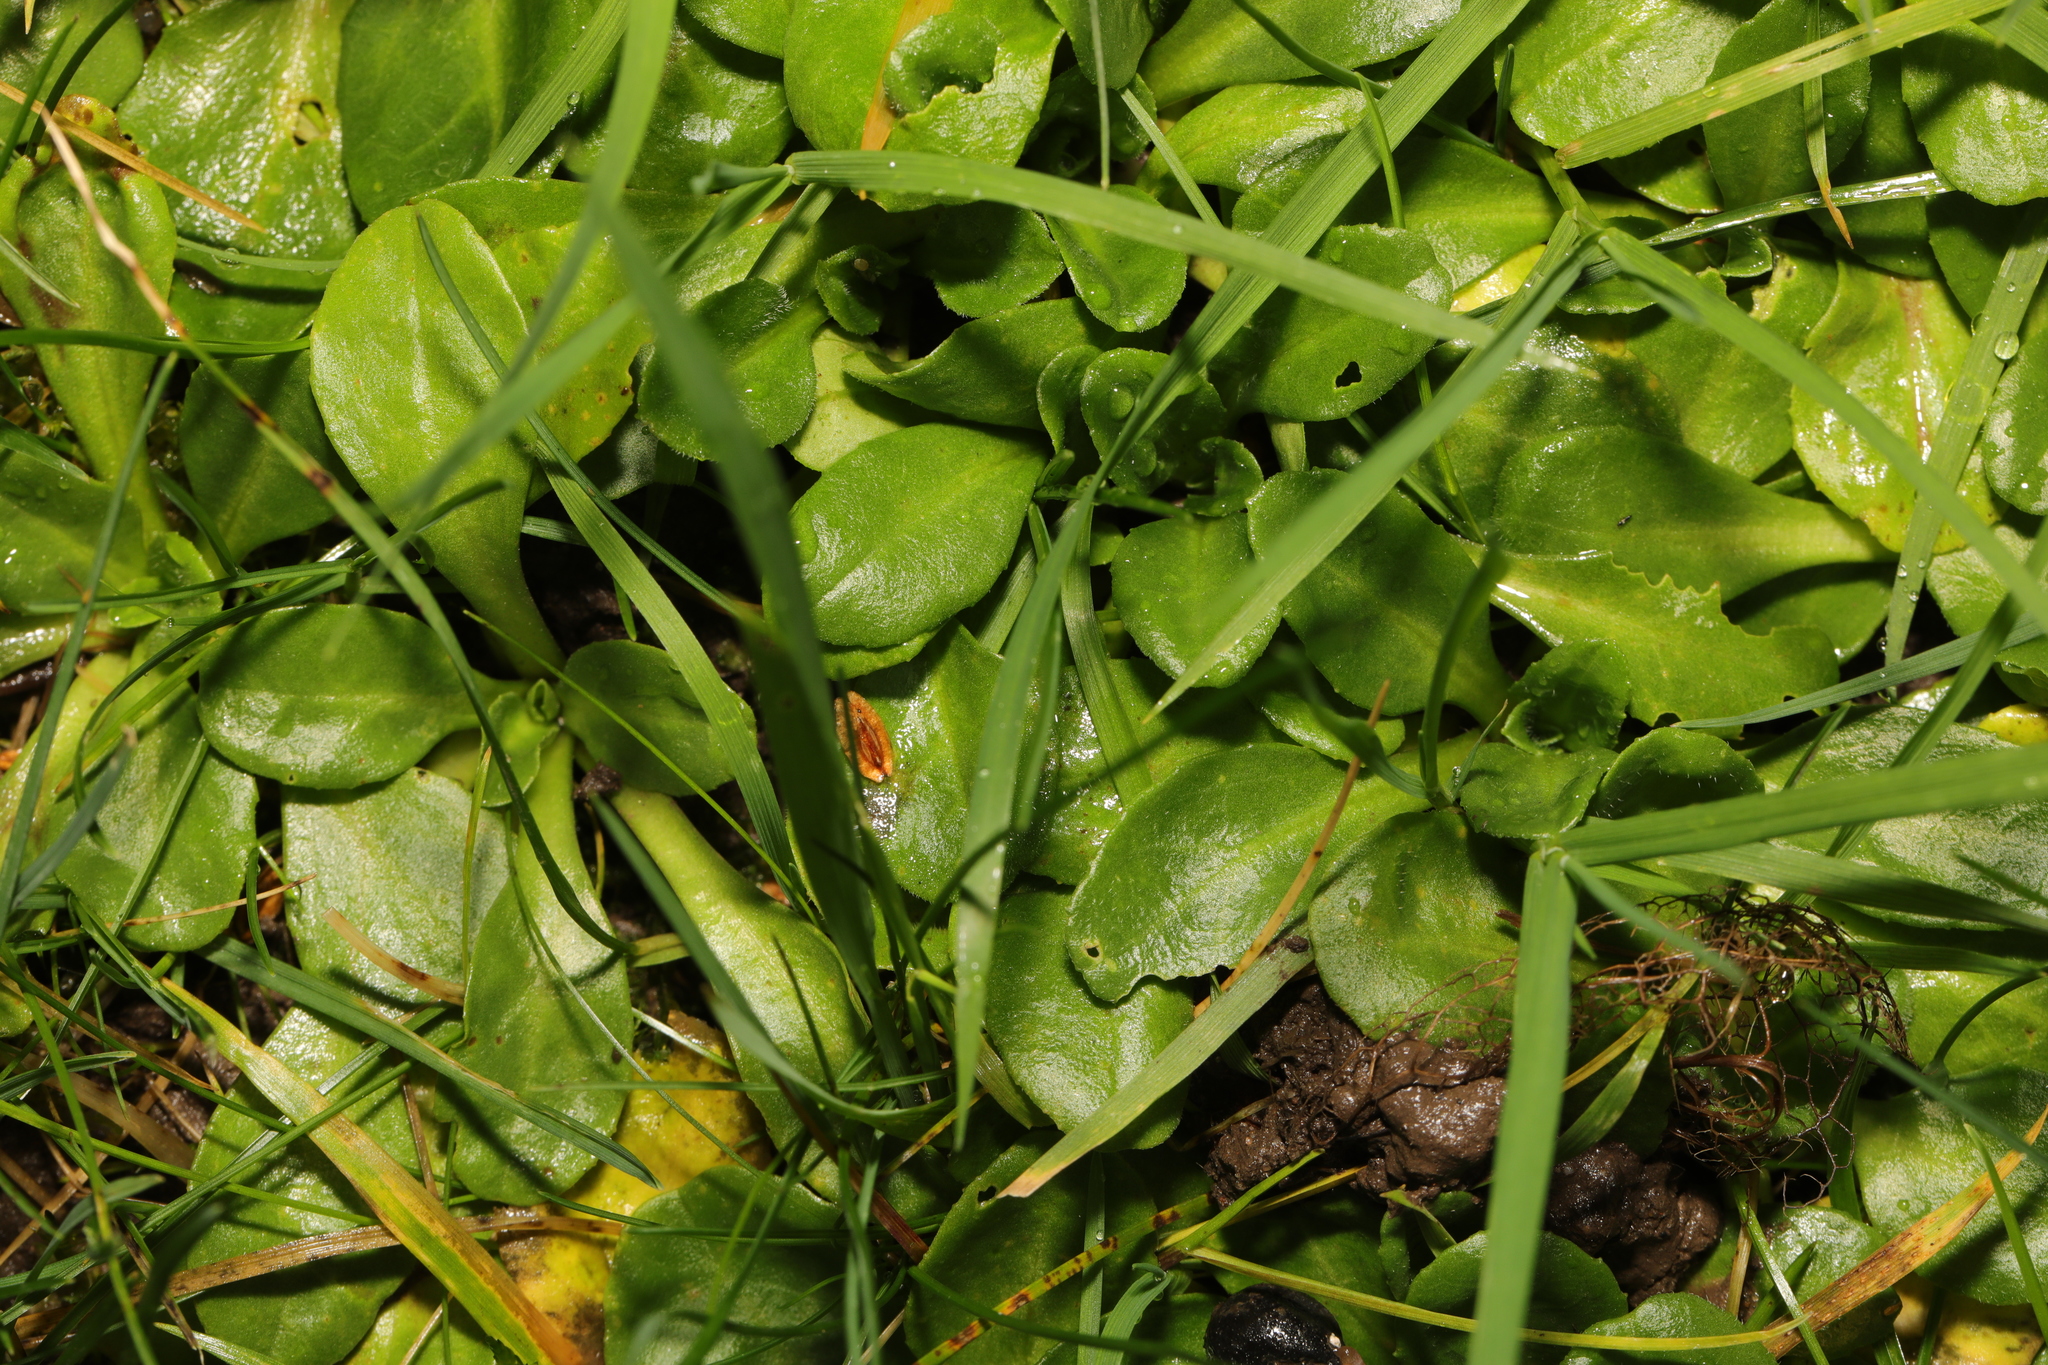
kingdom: Plantae
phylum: Tracheophyta
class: Magnoliopsida
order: Asterales
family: Asteraceae
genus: Bellis
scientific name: Bellis perennis
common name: Lawndaisy
